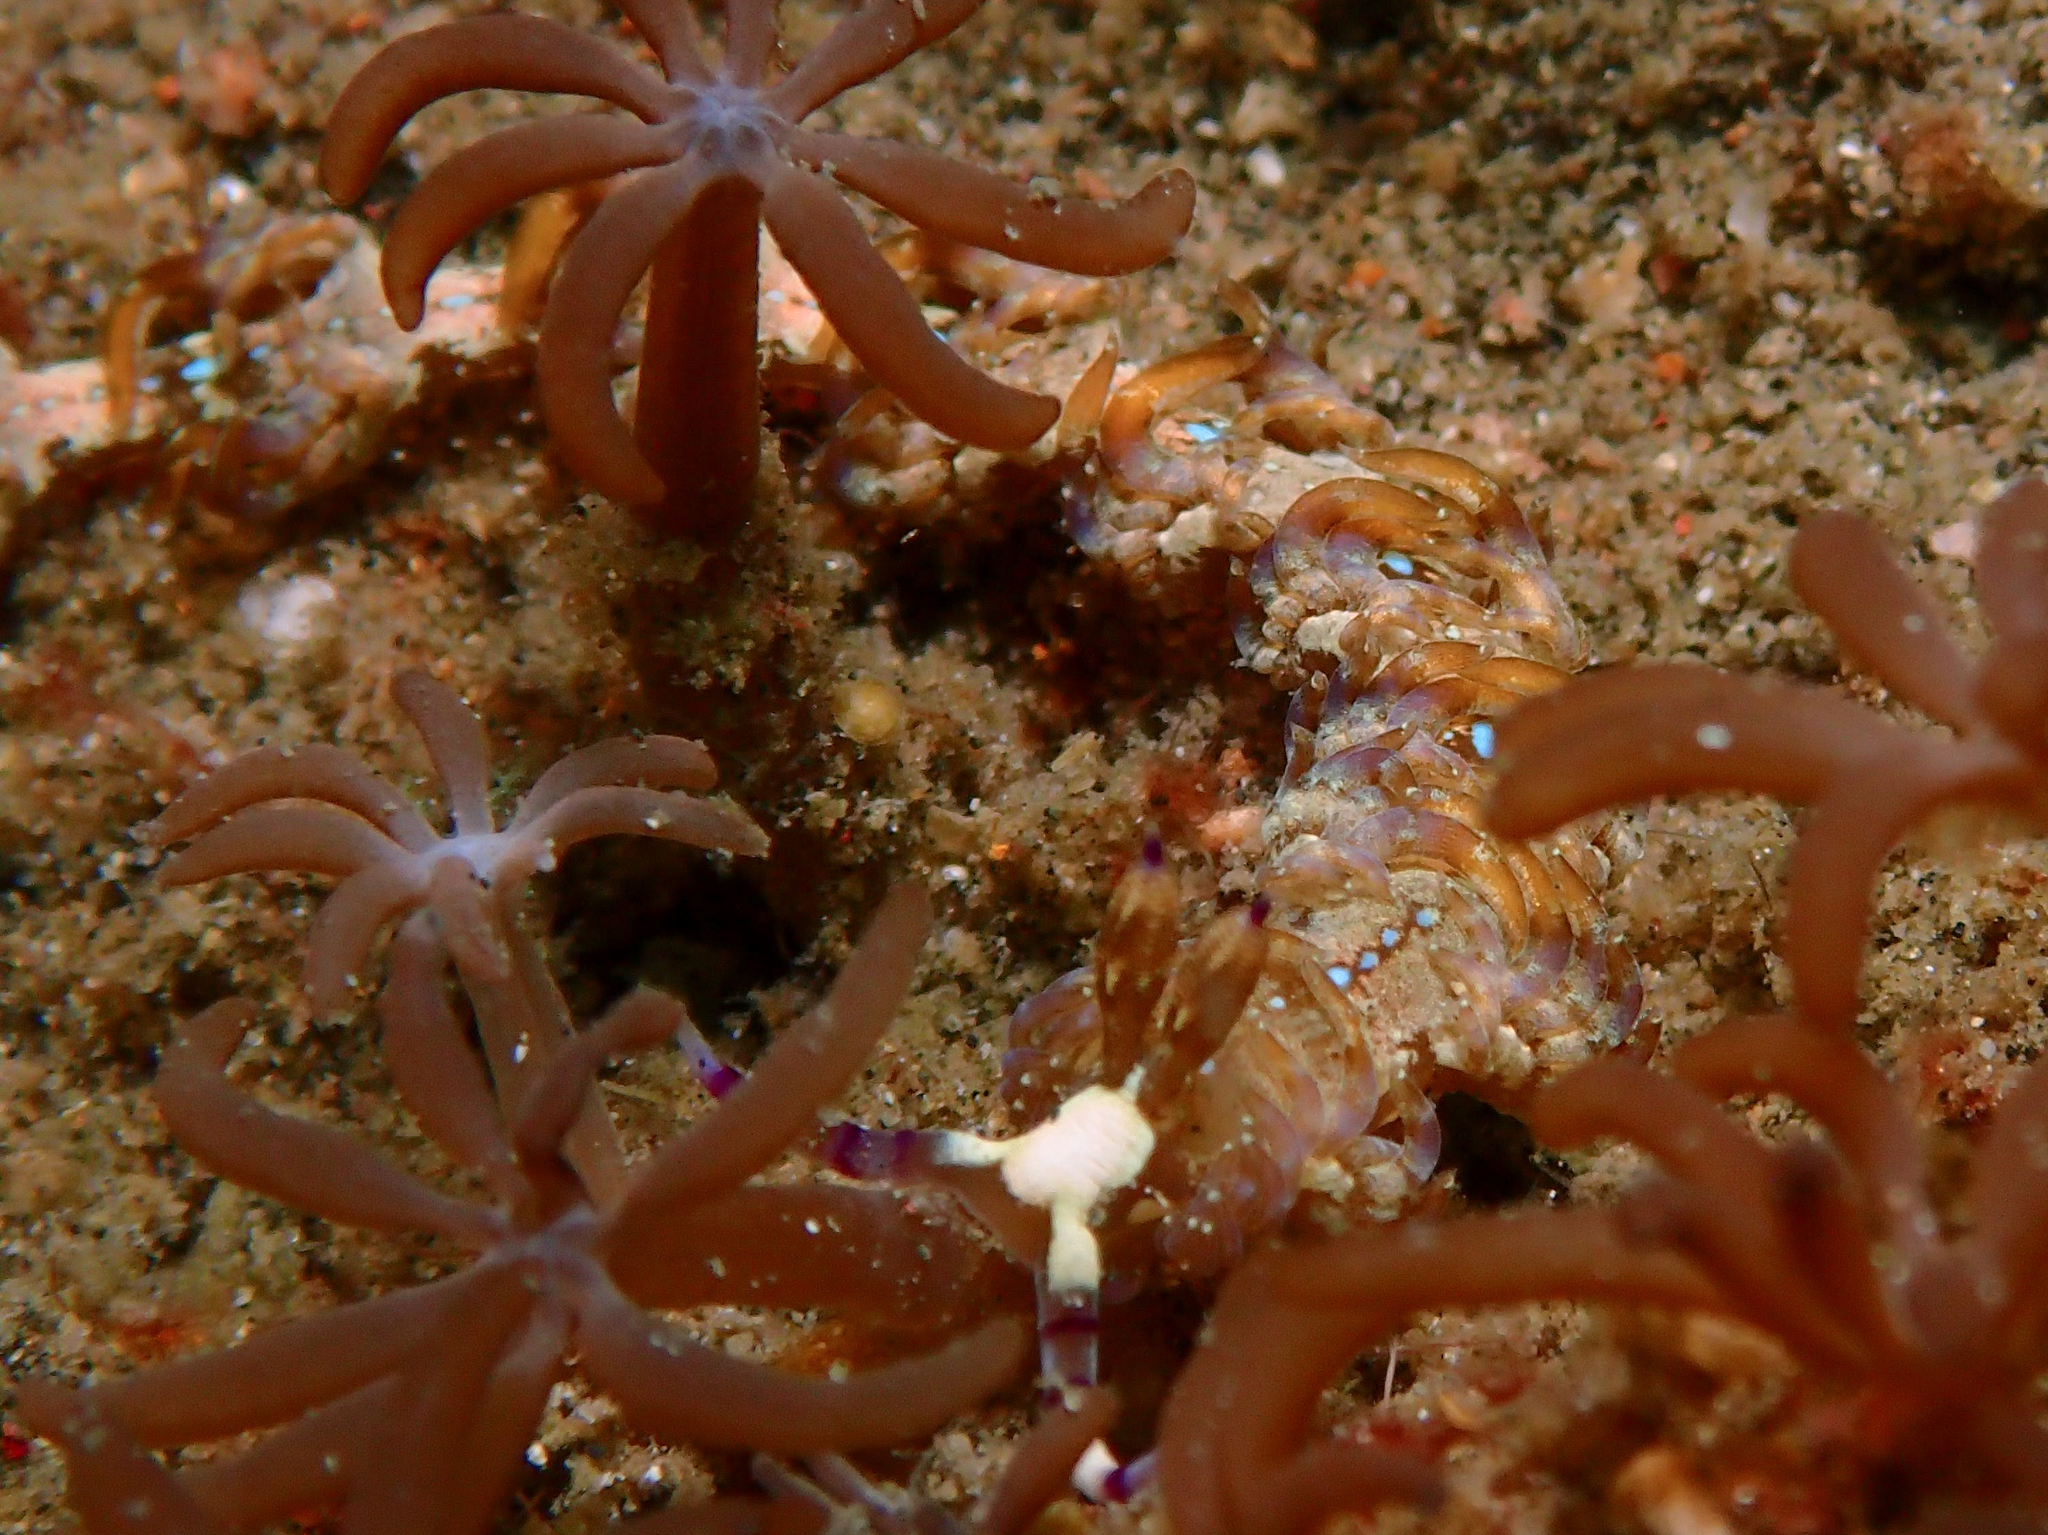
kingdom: Animalia
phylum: Mollusca
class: Gastropoda
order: Nudibranchia
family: Facelinidae
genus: Pteraeolidia
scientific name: Pteraeolidia semperi
